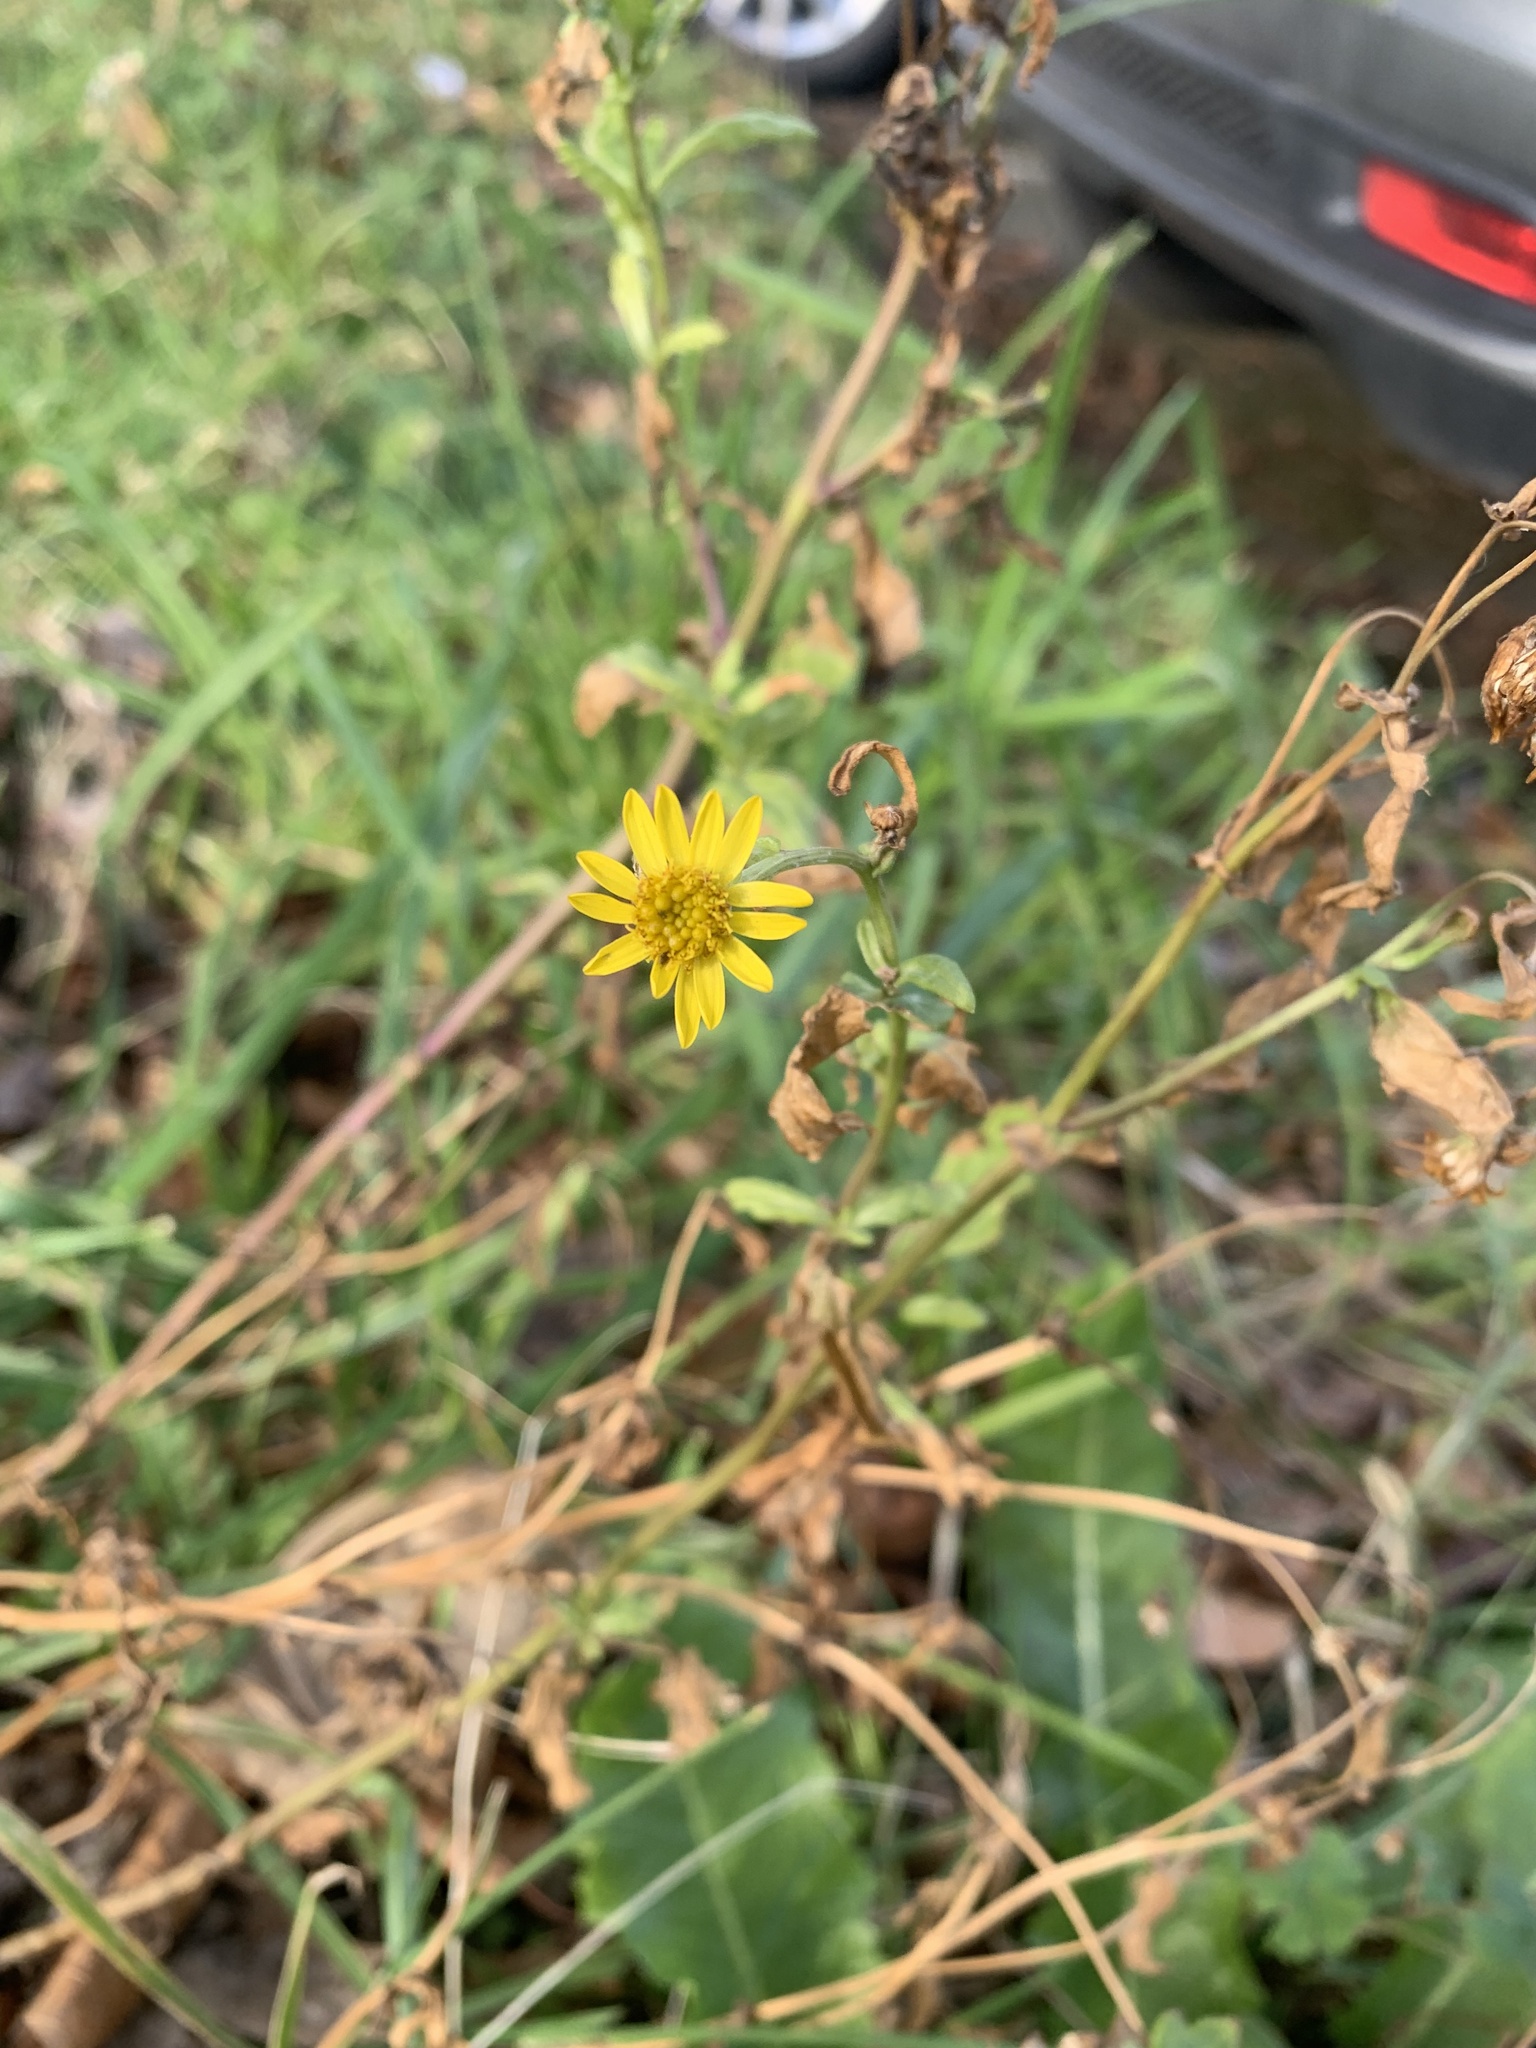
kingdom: Plantae
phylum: Tracheophyta
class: Magnoliopsida
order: Asterales
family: Asteraceae
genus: Jacobaea
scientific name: Jacobaea vulgaris
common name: Stinking willie
